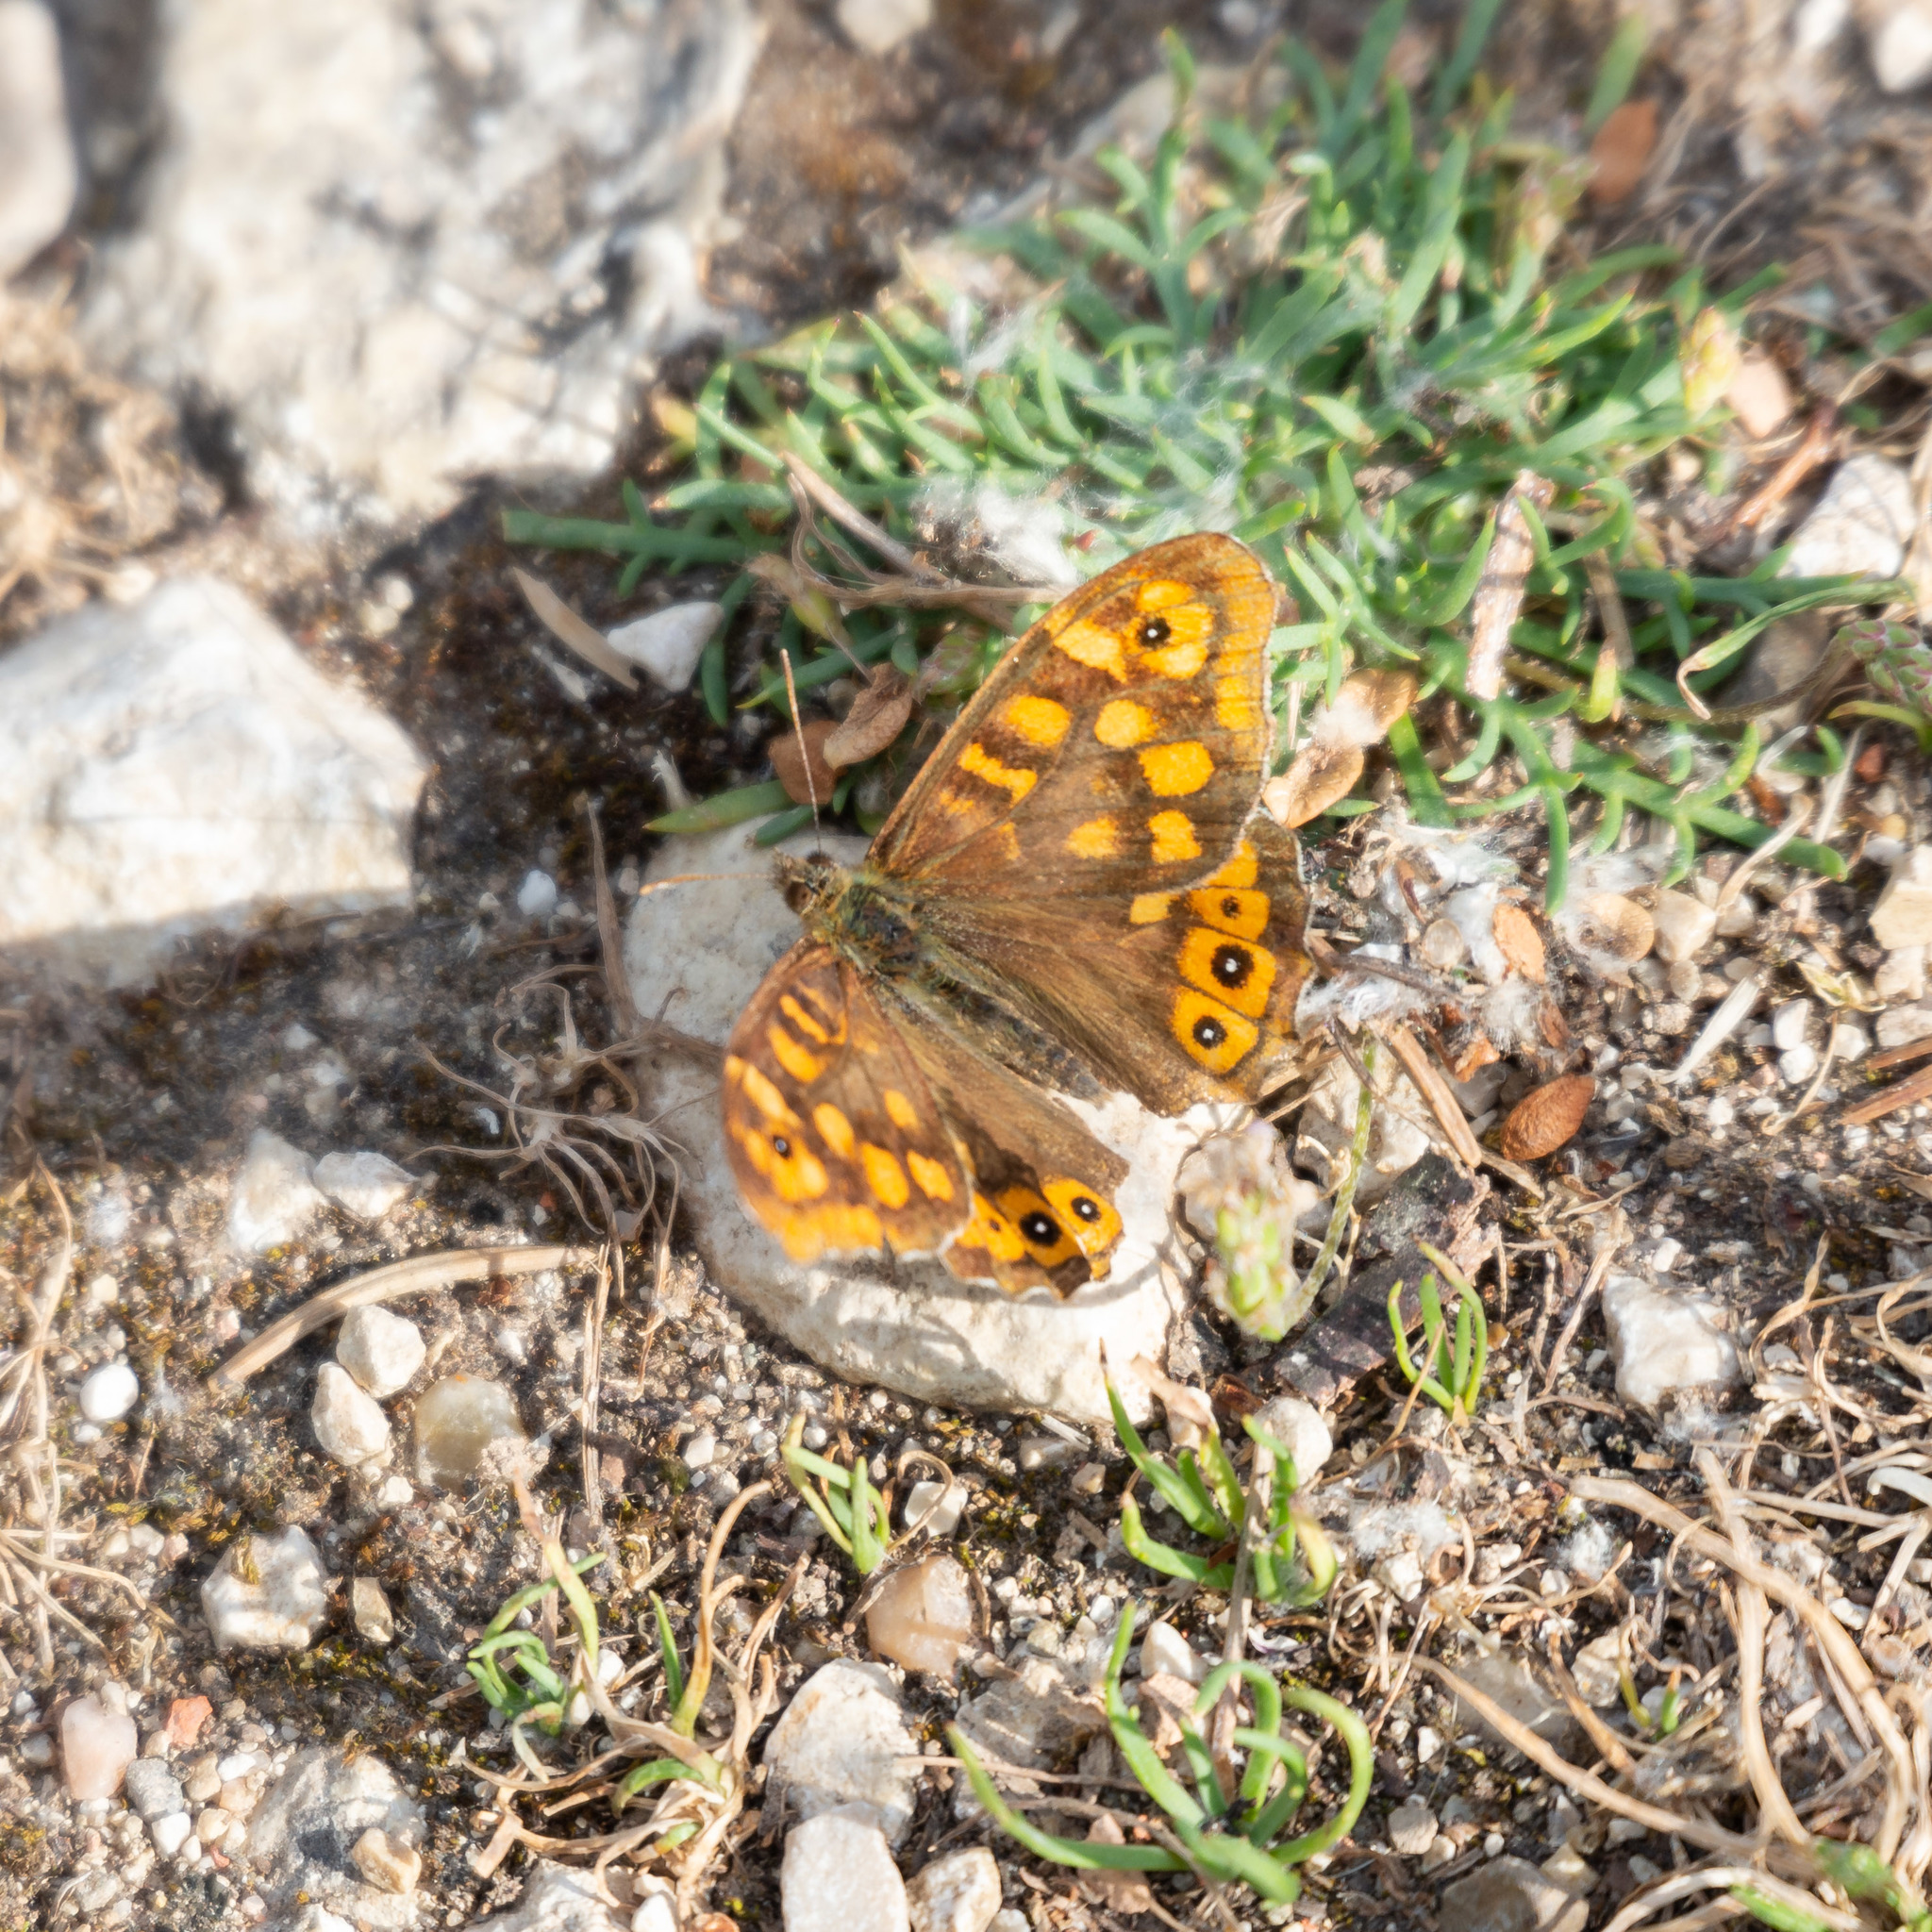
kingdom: Animalia
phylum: Arthropoda
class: Insecta
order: Lepidoptera
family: Nymphalidae
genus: Pararge
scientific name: Pararge aegeria
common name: Speckled wood
